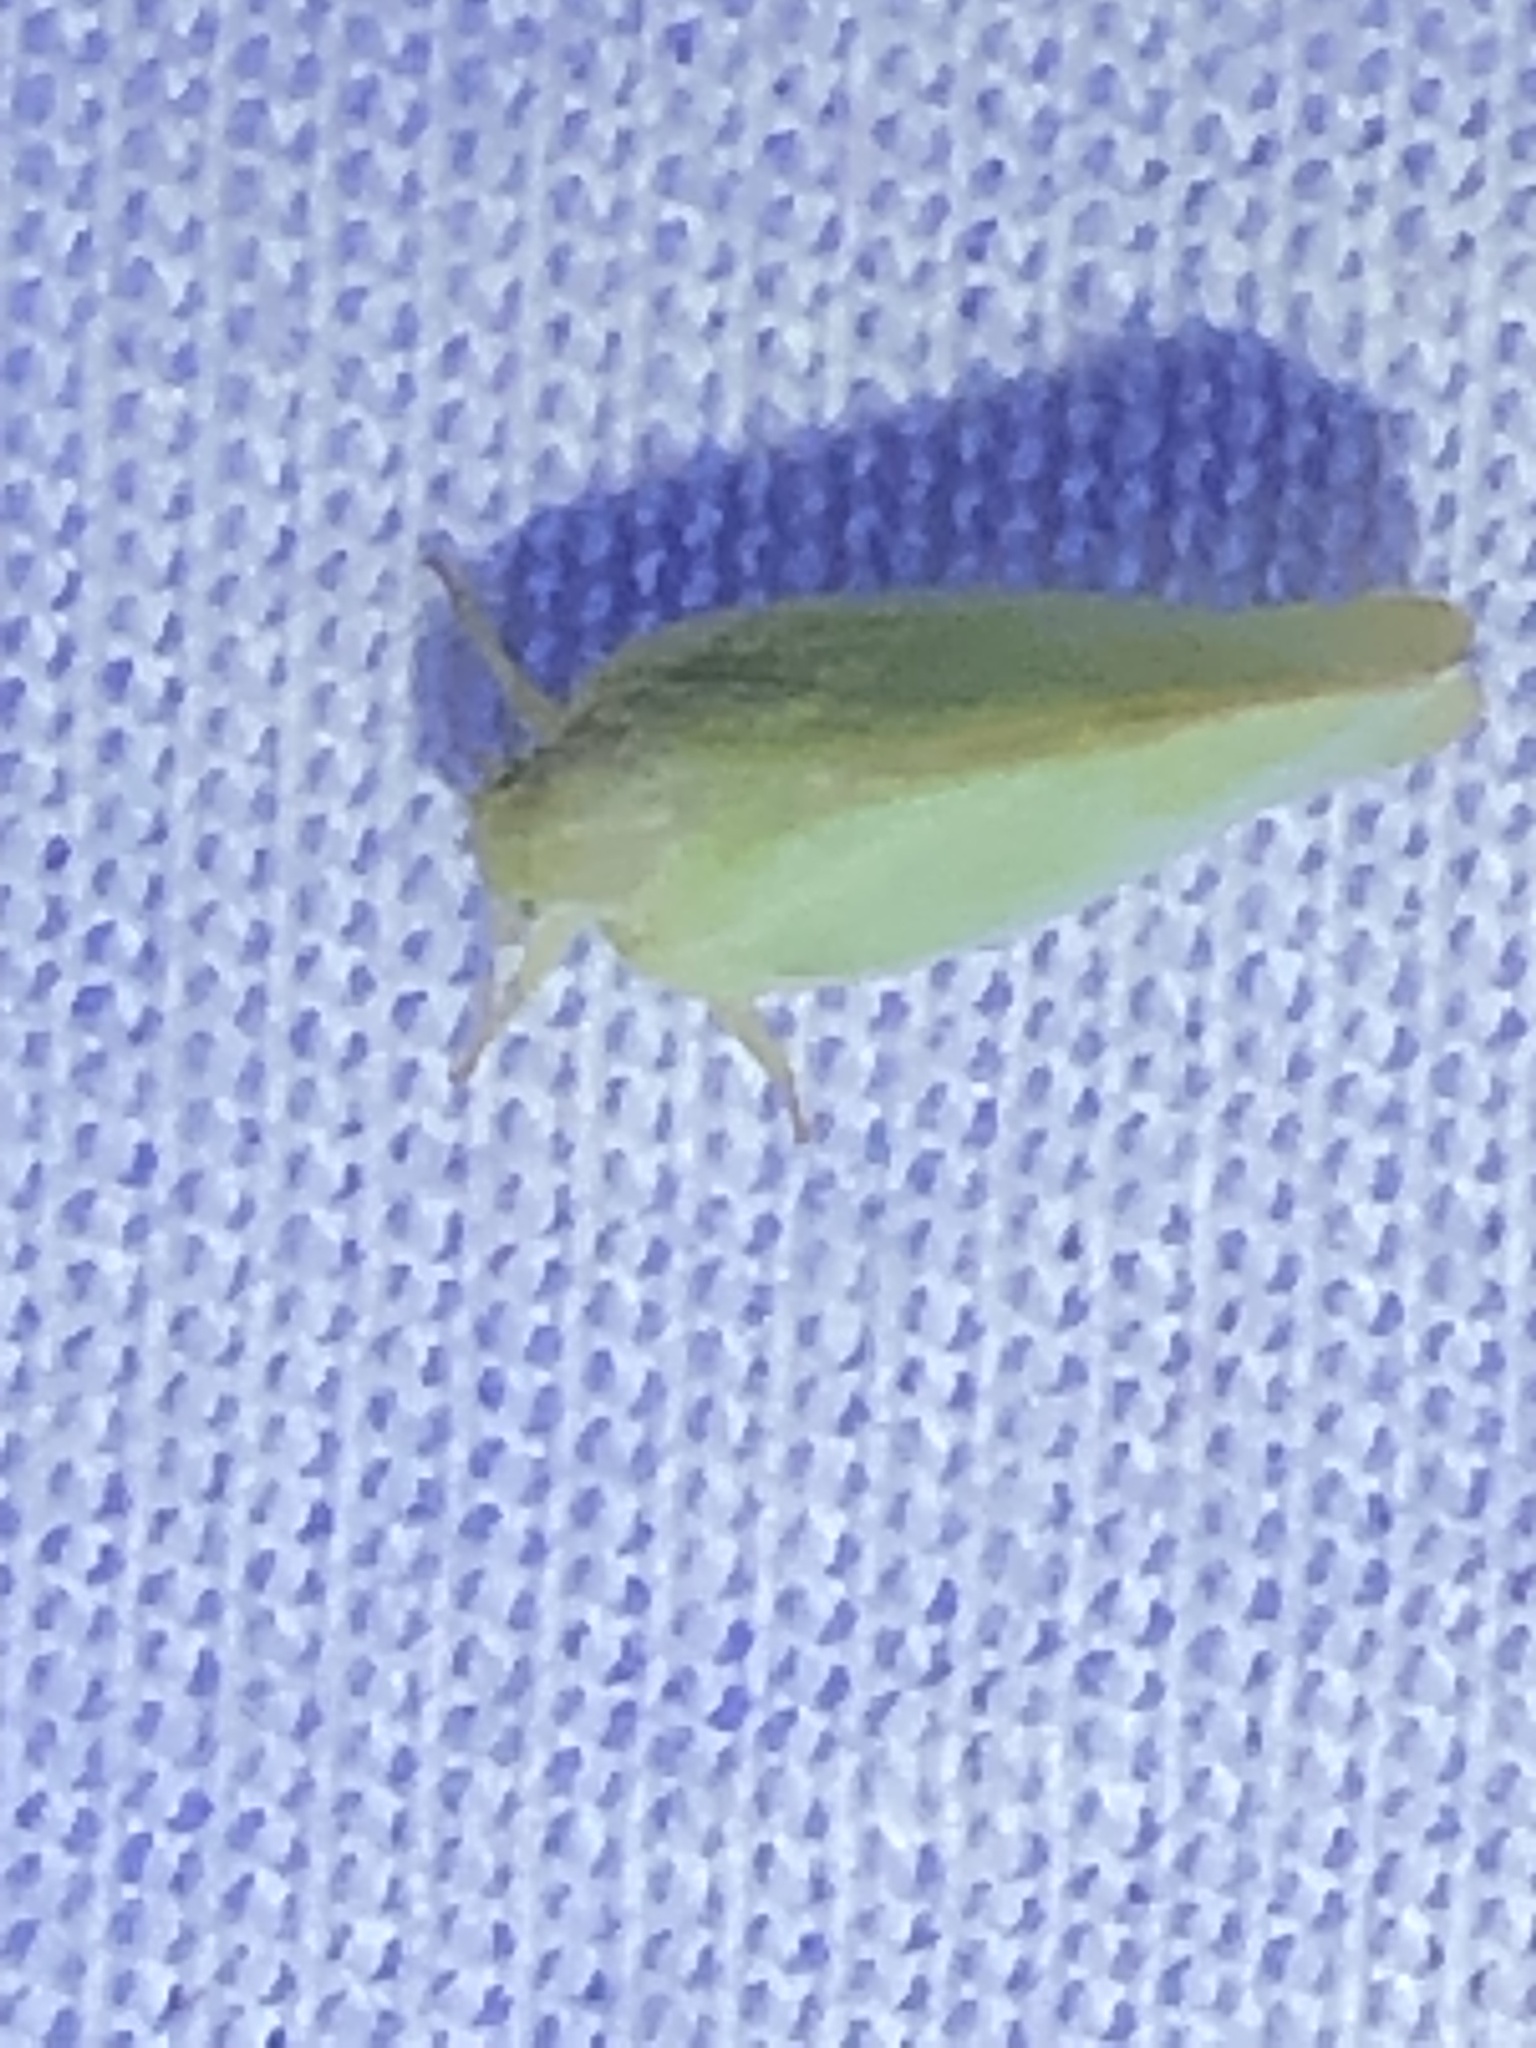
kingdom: Animalia
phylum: Arthropoda
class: Insecta
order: Hemiptera
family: Flatidae
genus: Ormenoides
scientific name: Ormenoides venusta
